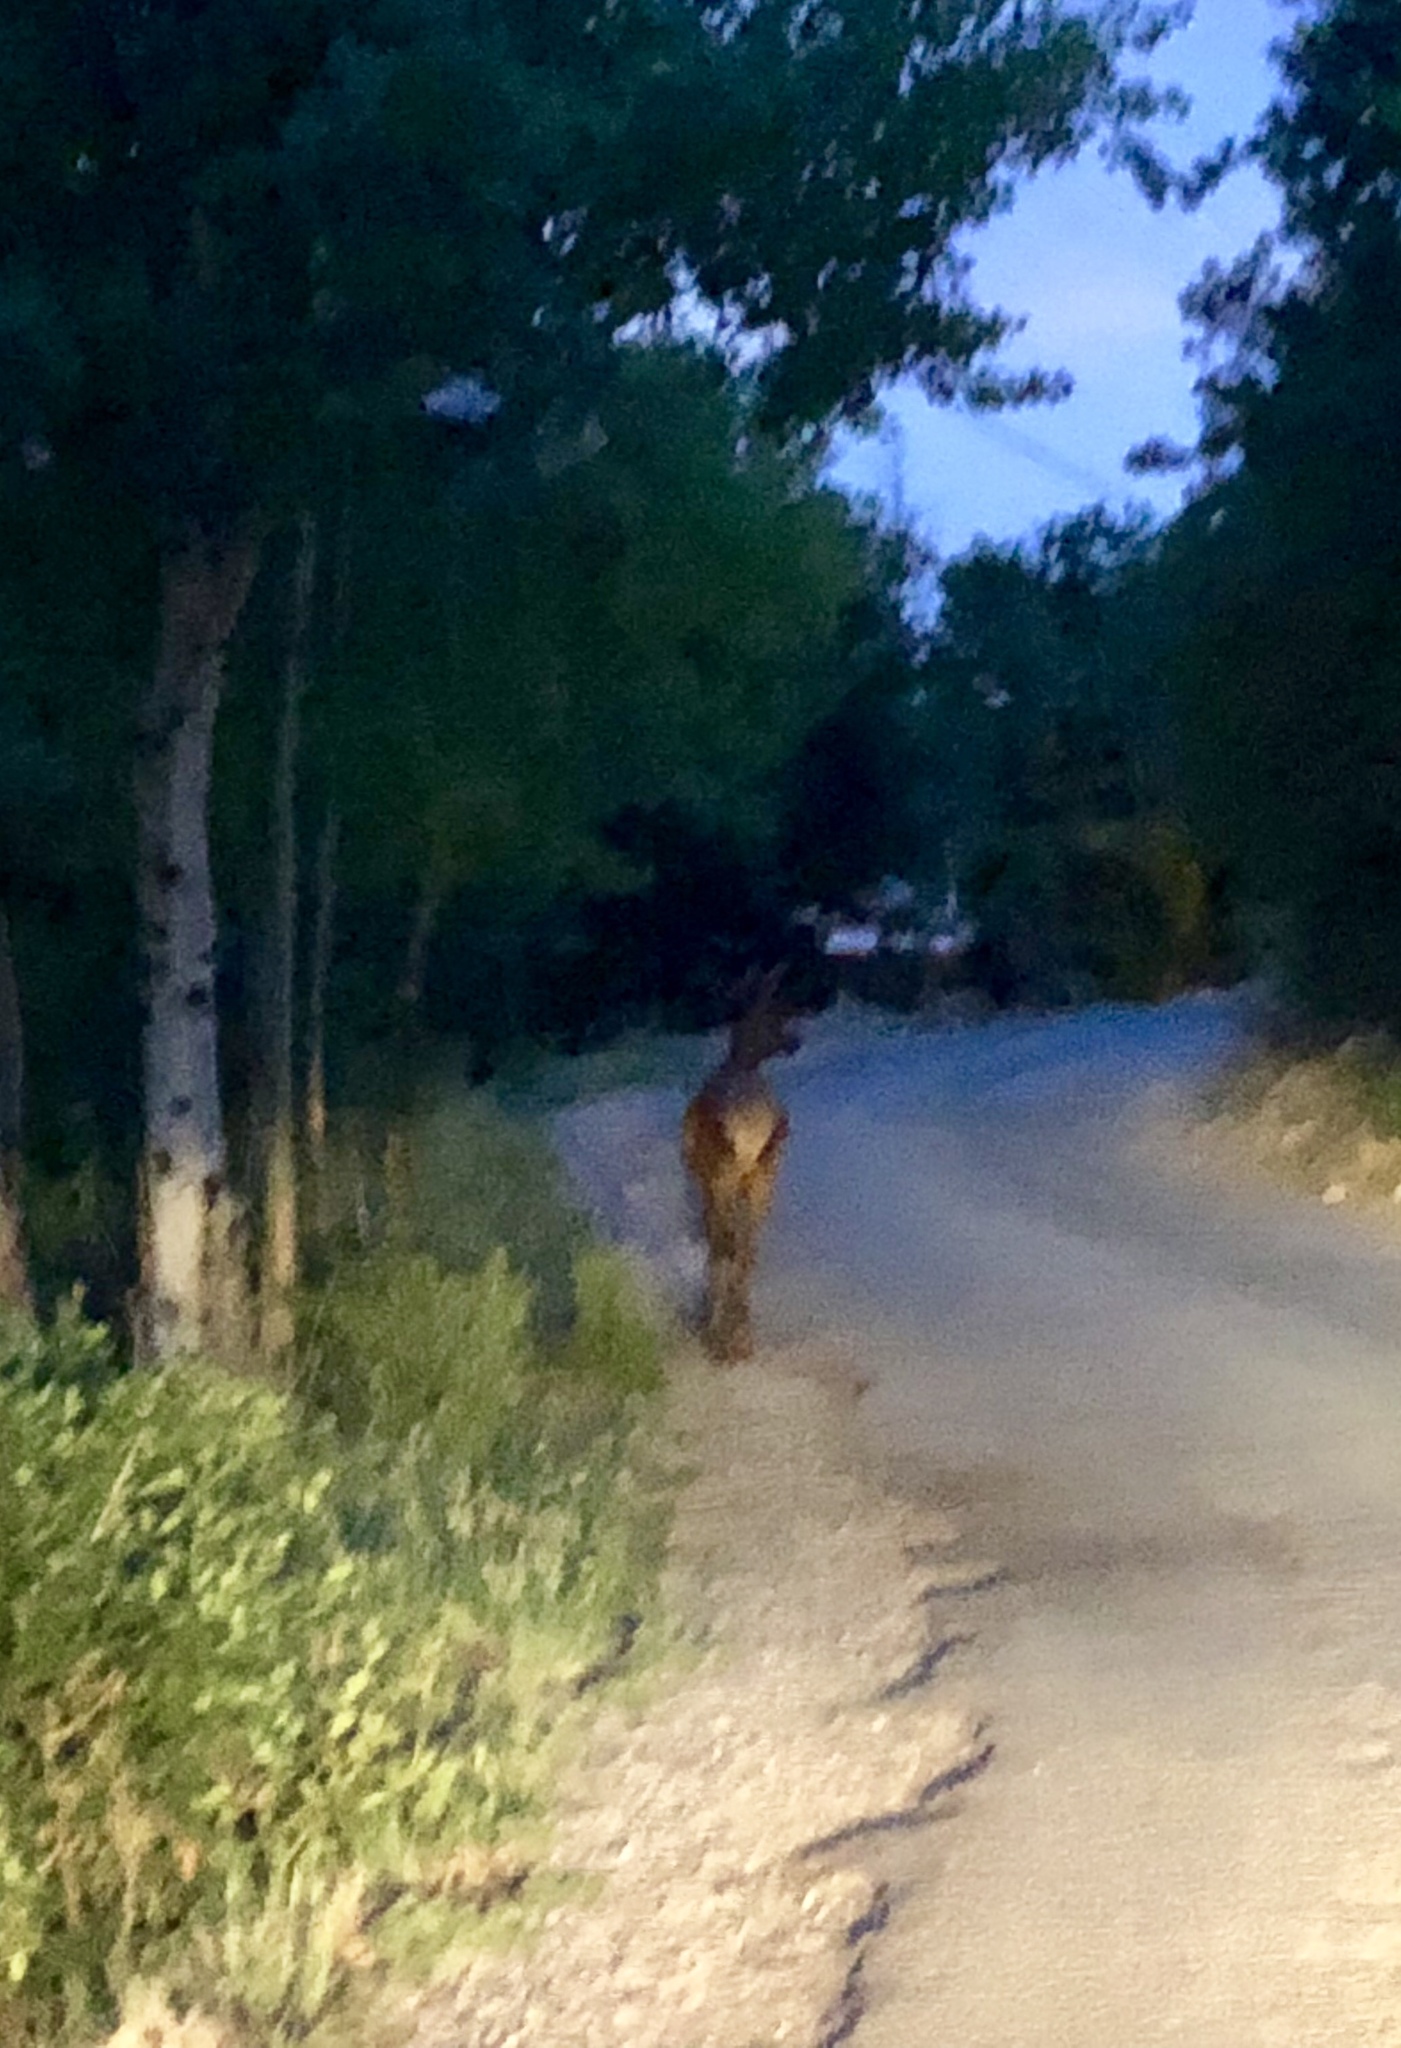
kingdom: Animalia
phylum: Chordata
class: Mammalia
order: Artiodactyla
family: Cervidae
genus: Cervus
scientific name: Cervus elaphus
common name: Red deer
